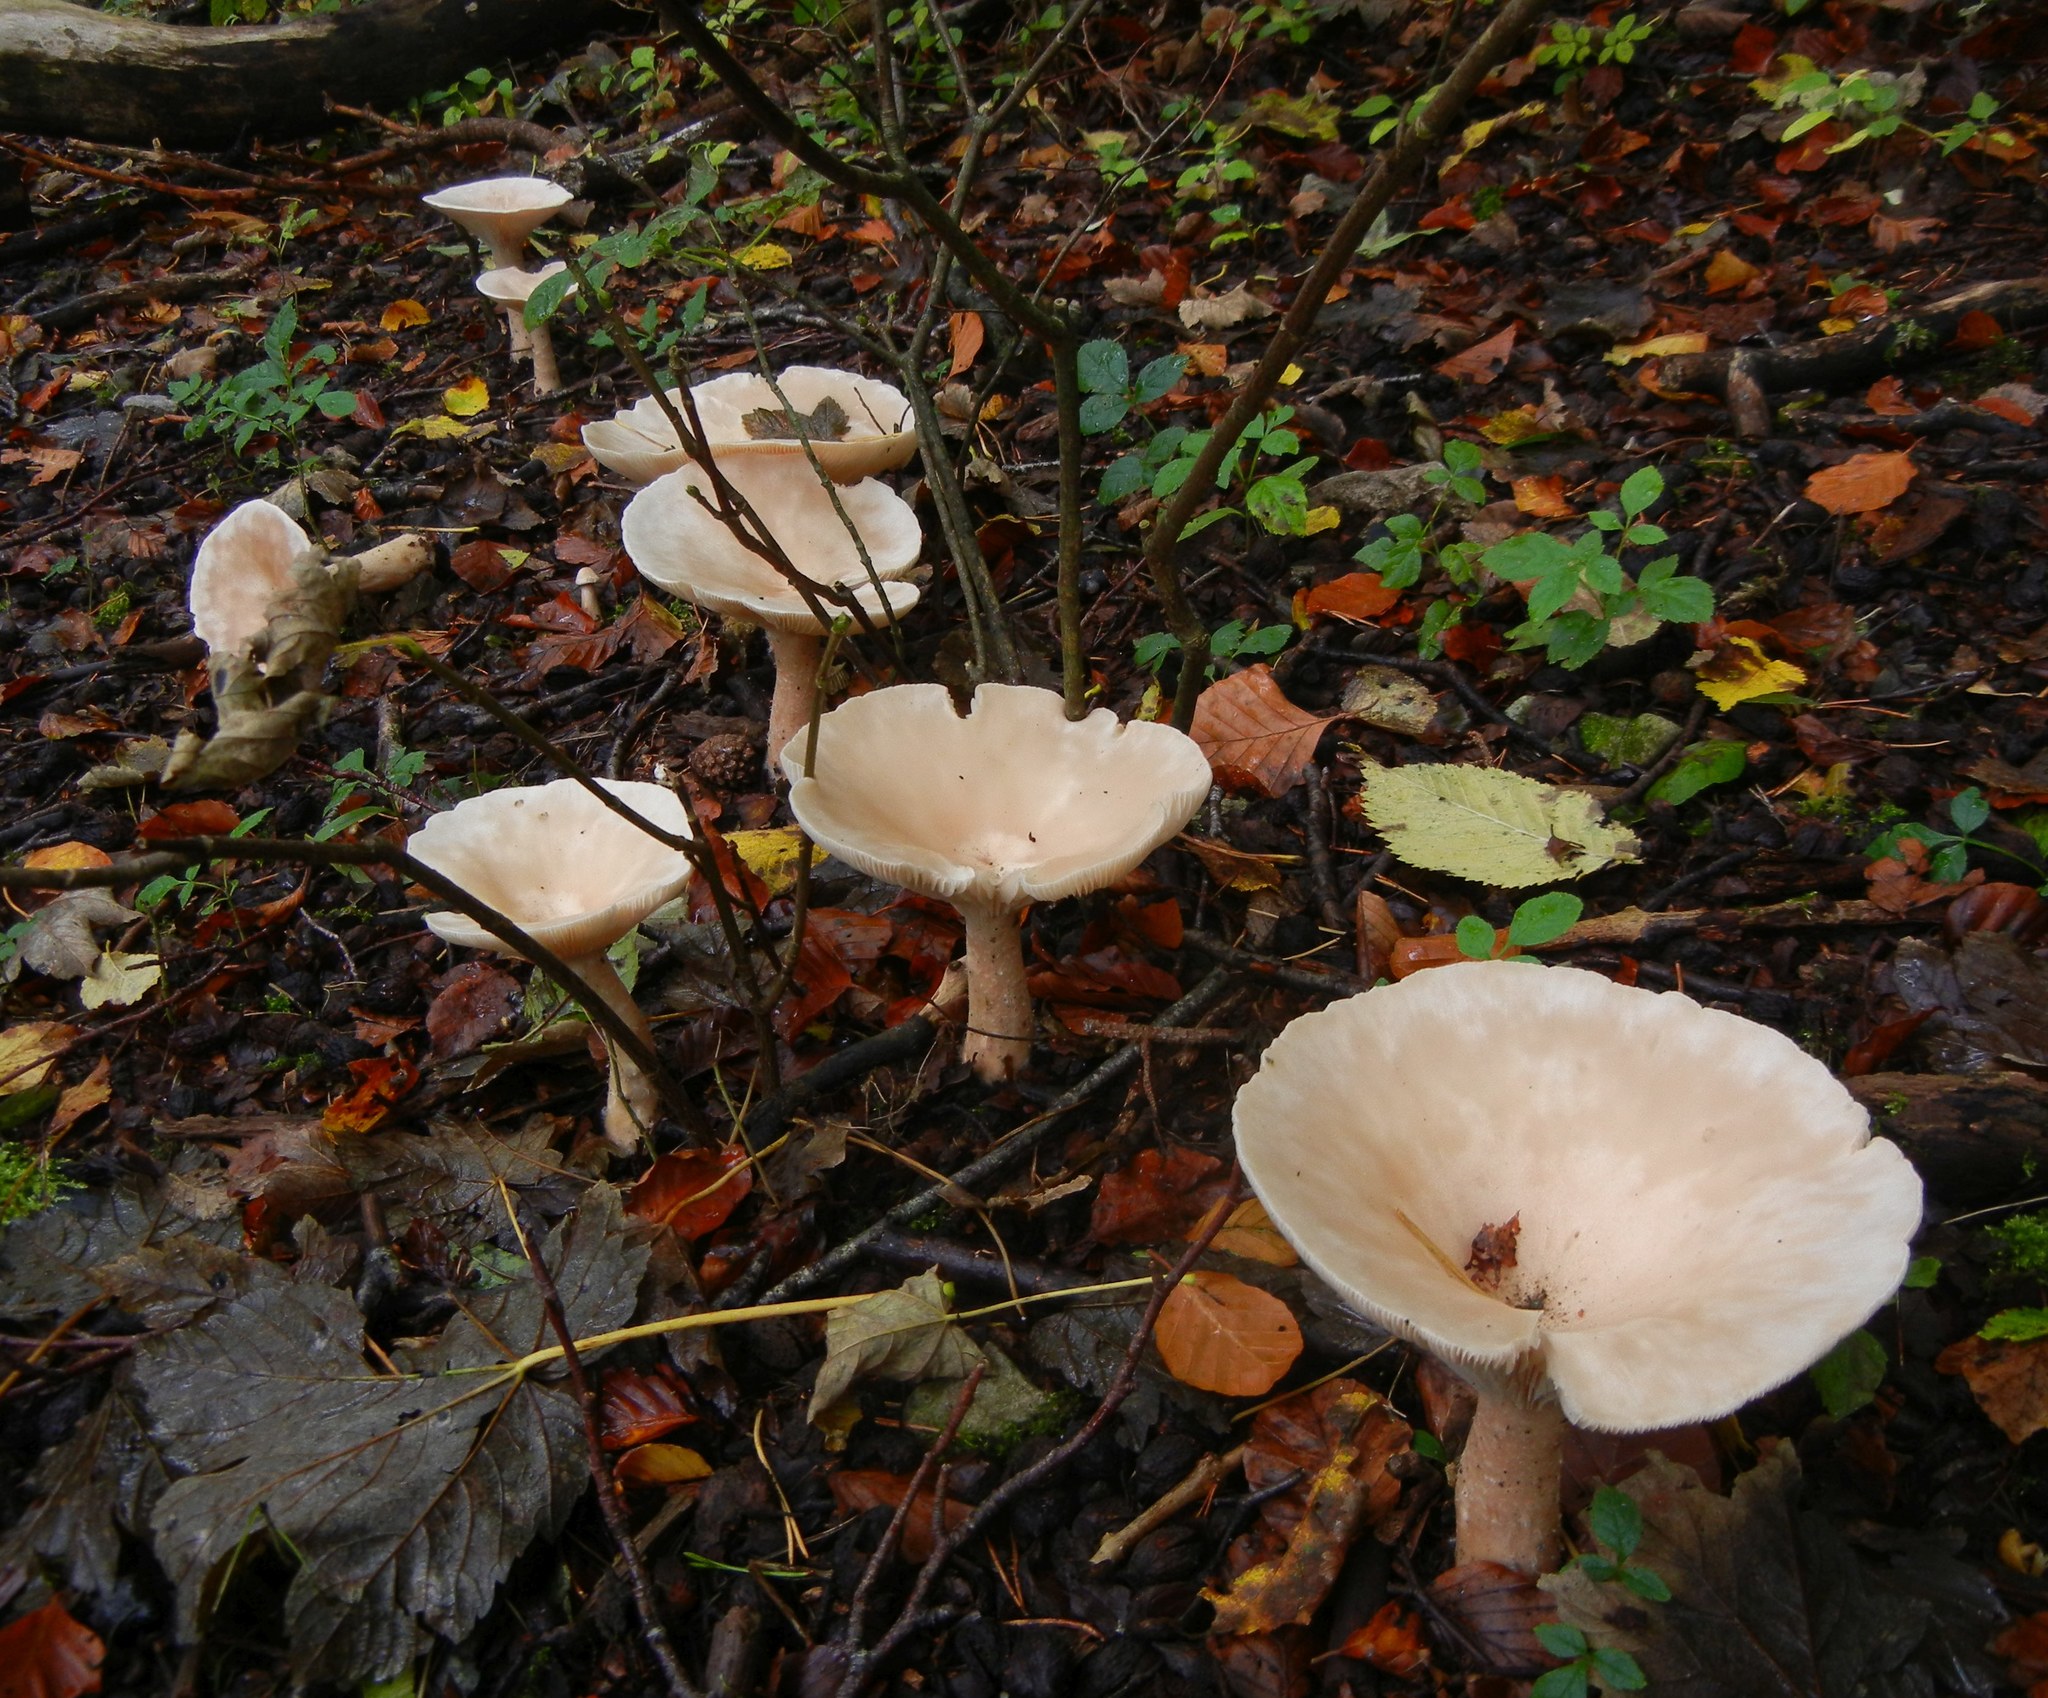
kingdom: Fungi
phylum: Basidiomycota
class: Agaricomycetes
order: Agaricales
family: Tricholomataceae
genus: Infundibulicybe
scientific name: Infundibulicybe geotropa
